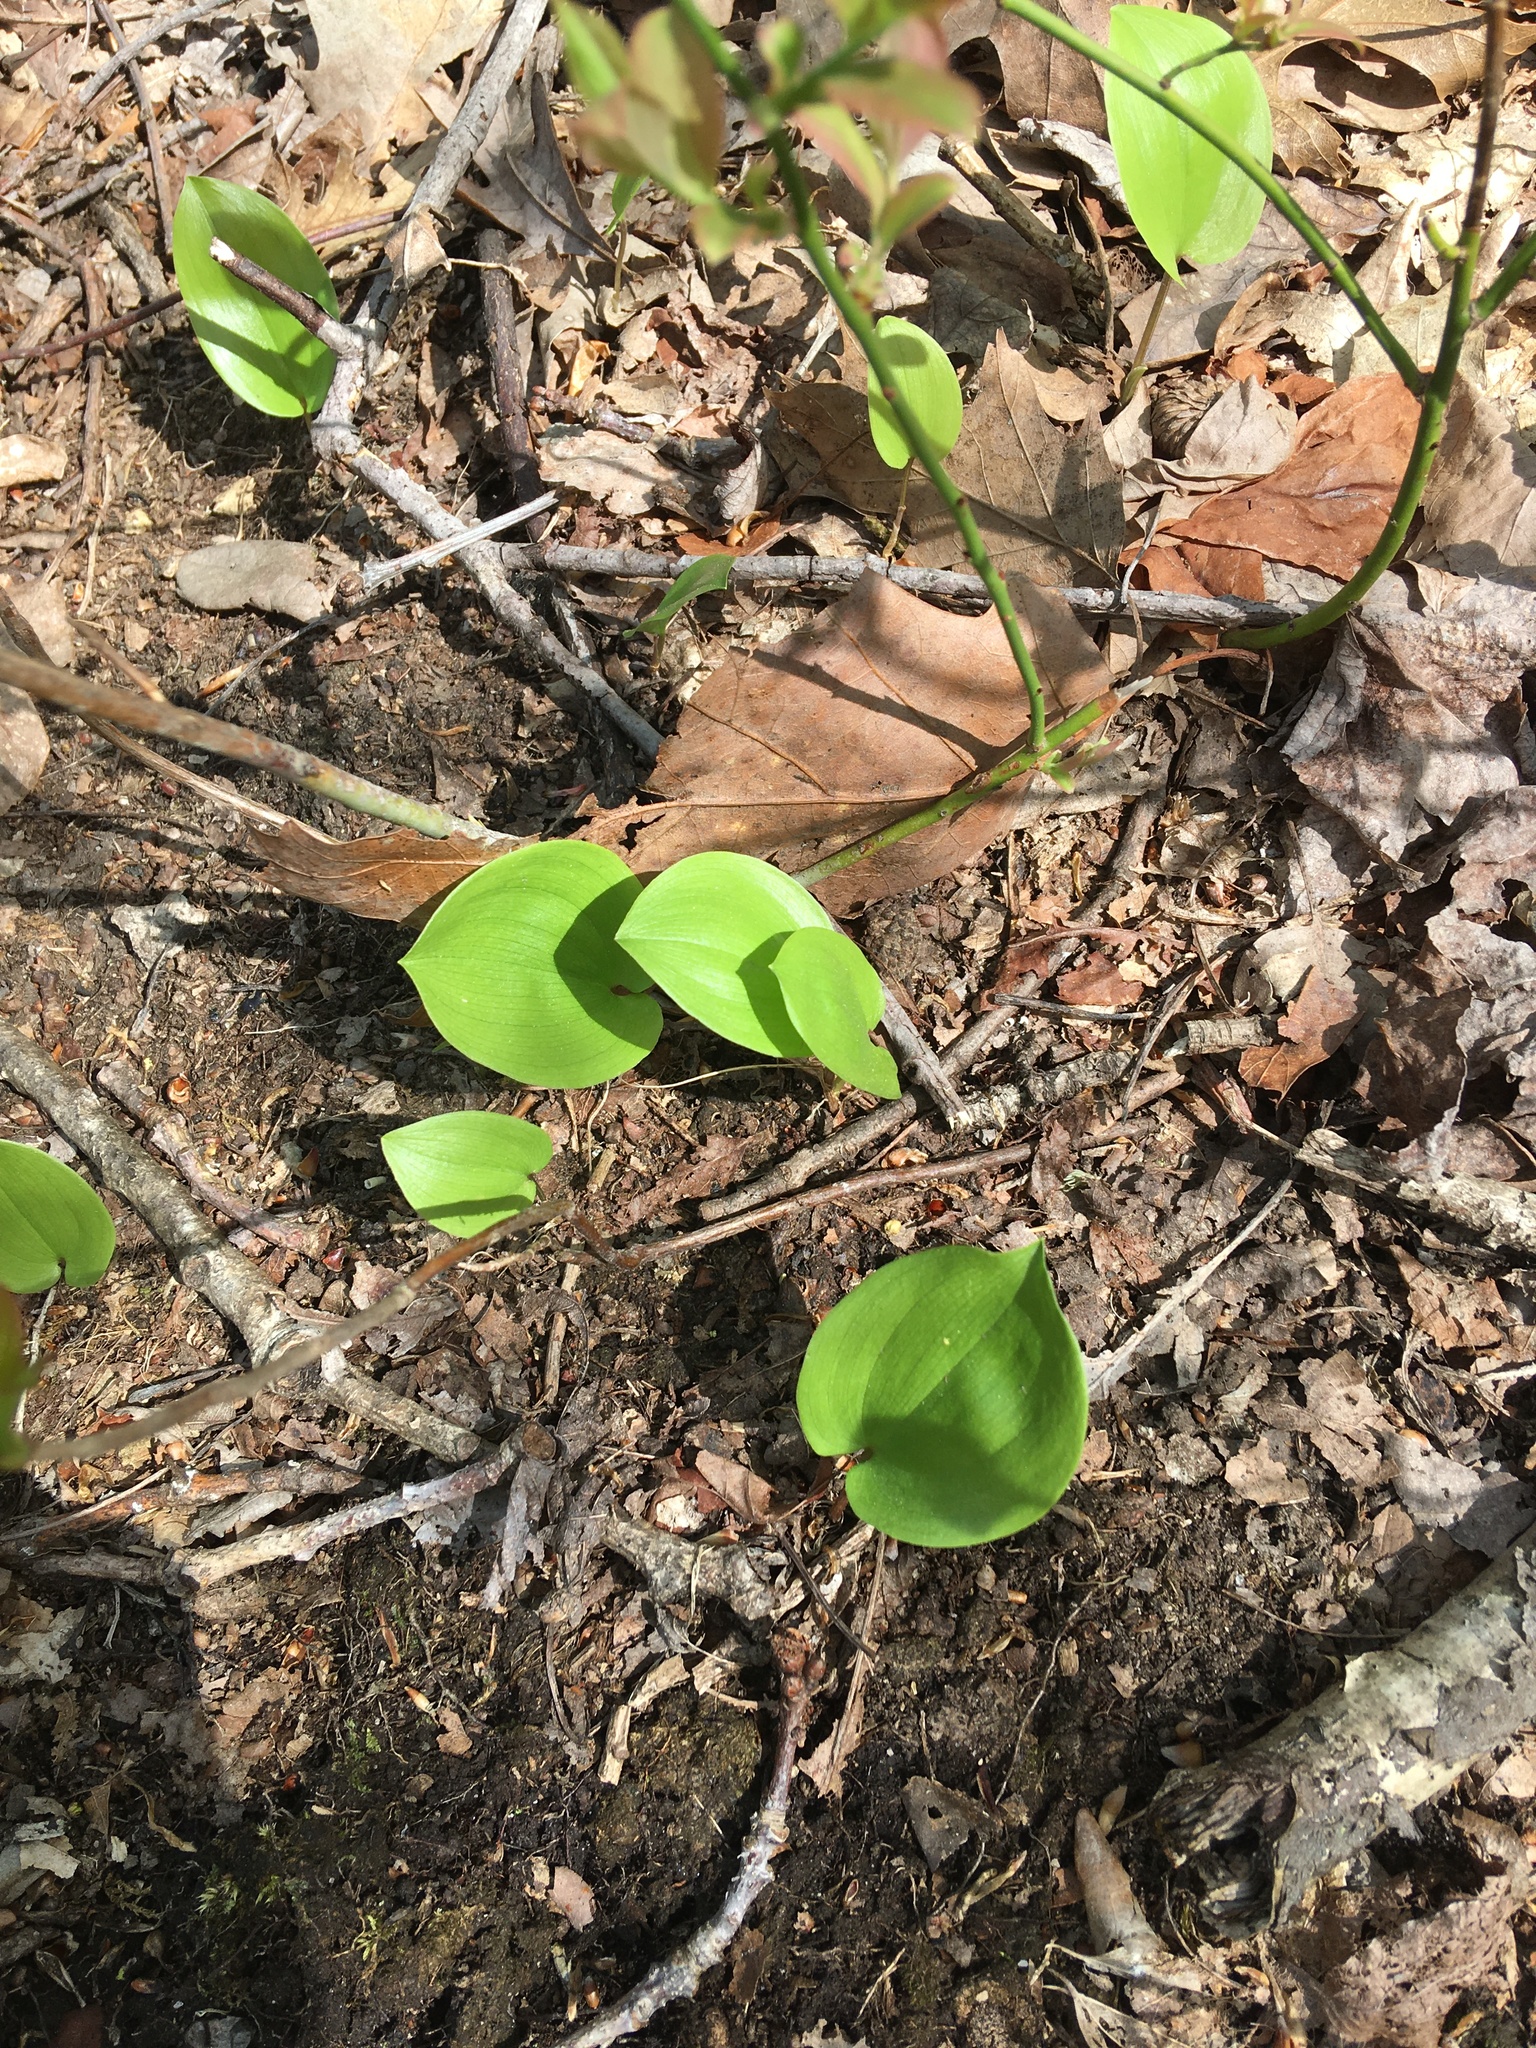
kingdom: Plantae
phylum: Tracheophyta
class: Liliopsida
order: Asparagales
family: Asparagaceae
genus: Maianthemum
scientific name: Maianthemum canadense
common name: False lily-of-the-valley
